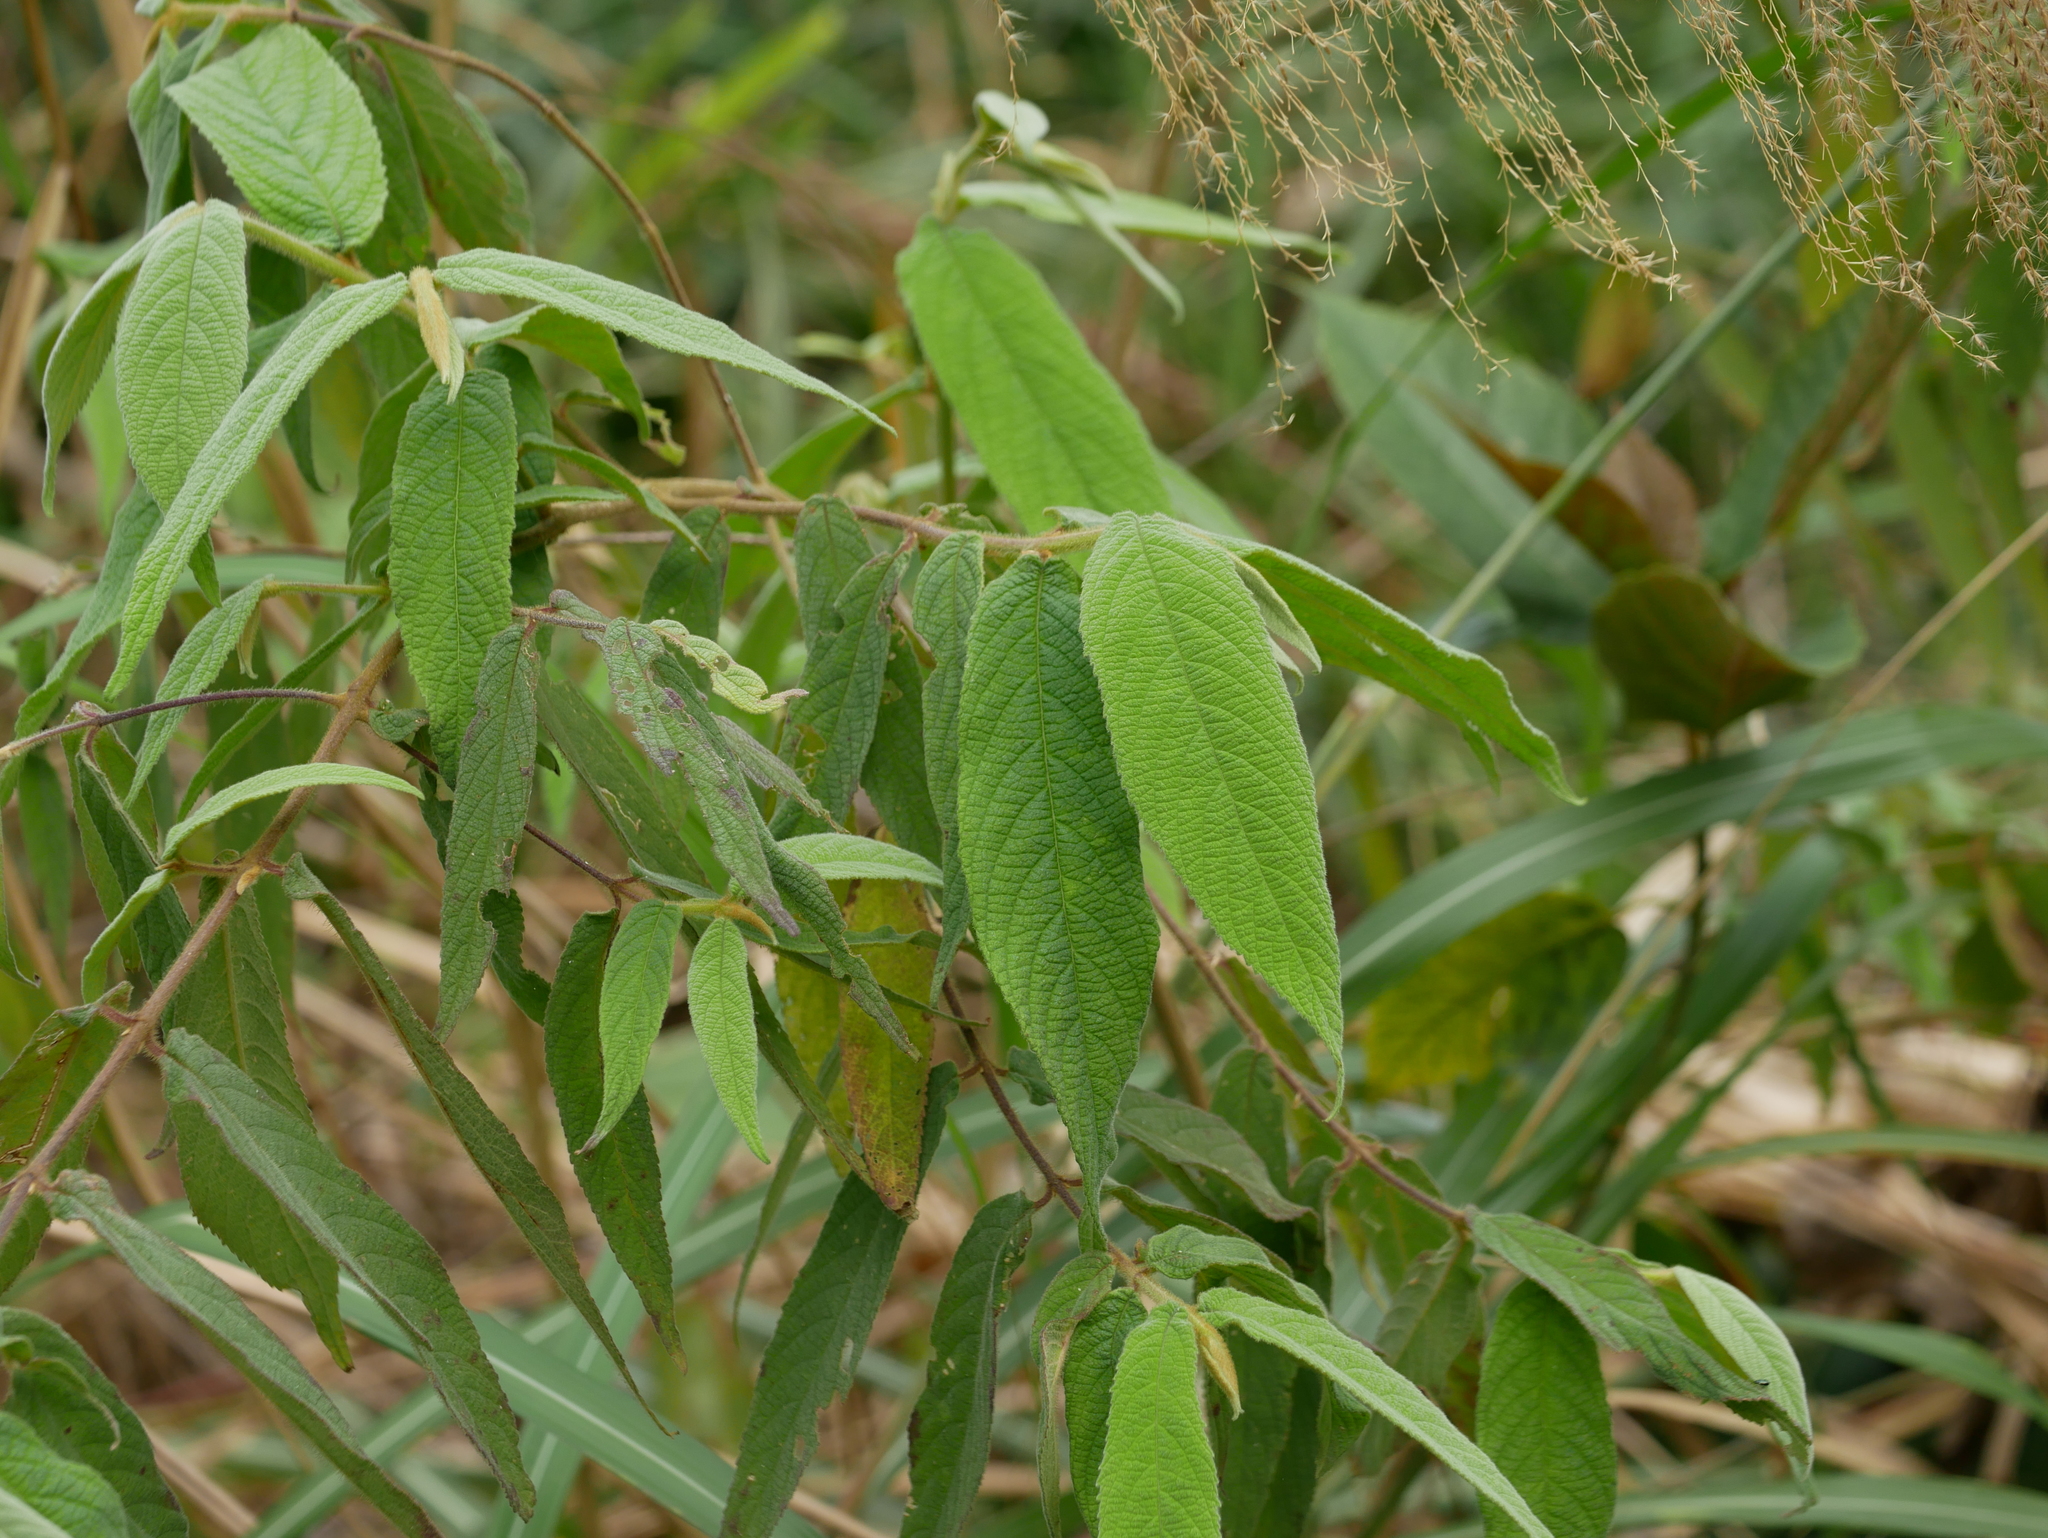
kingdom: Plantae
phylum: Tracheophyta
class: Magnoliopsida
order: Lamiales
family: Lamiaceae
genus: Callicarpa
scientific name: Callicarpa pilosissima
